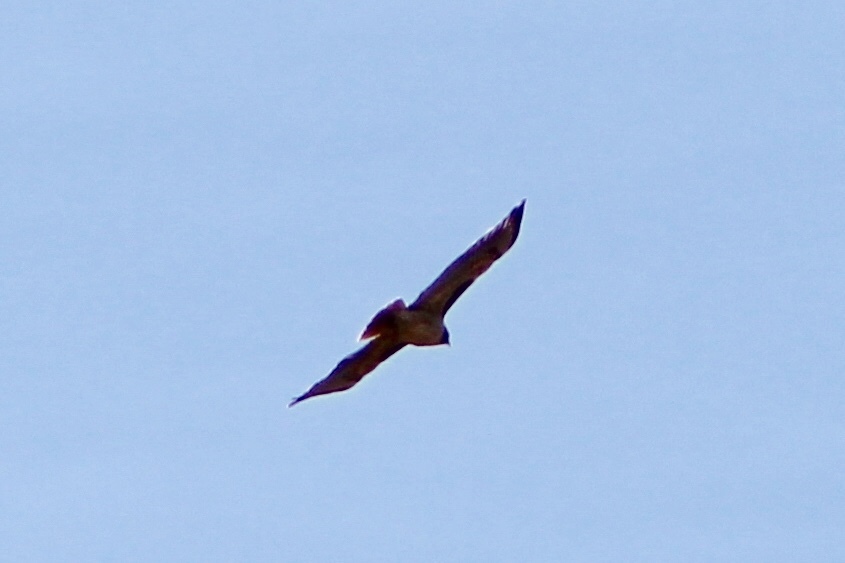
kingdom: Animalia
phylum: Chordata
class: Aves
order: Accipitriformes
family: Accipitridae
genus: Buteo
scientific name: Buteo jamaicensis
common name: Red-tailed hawk
